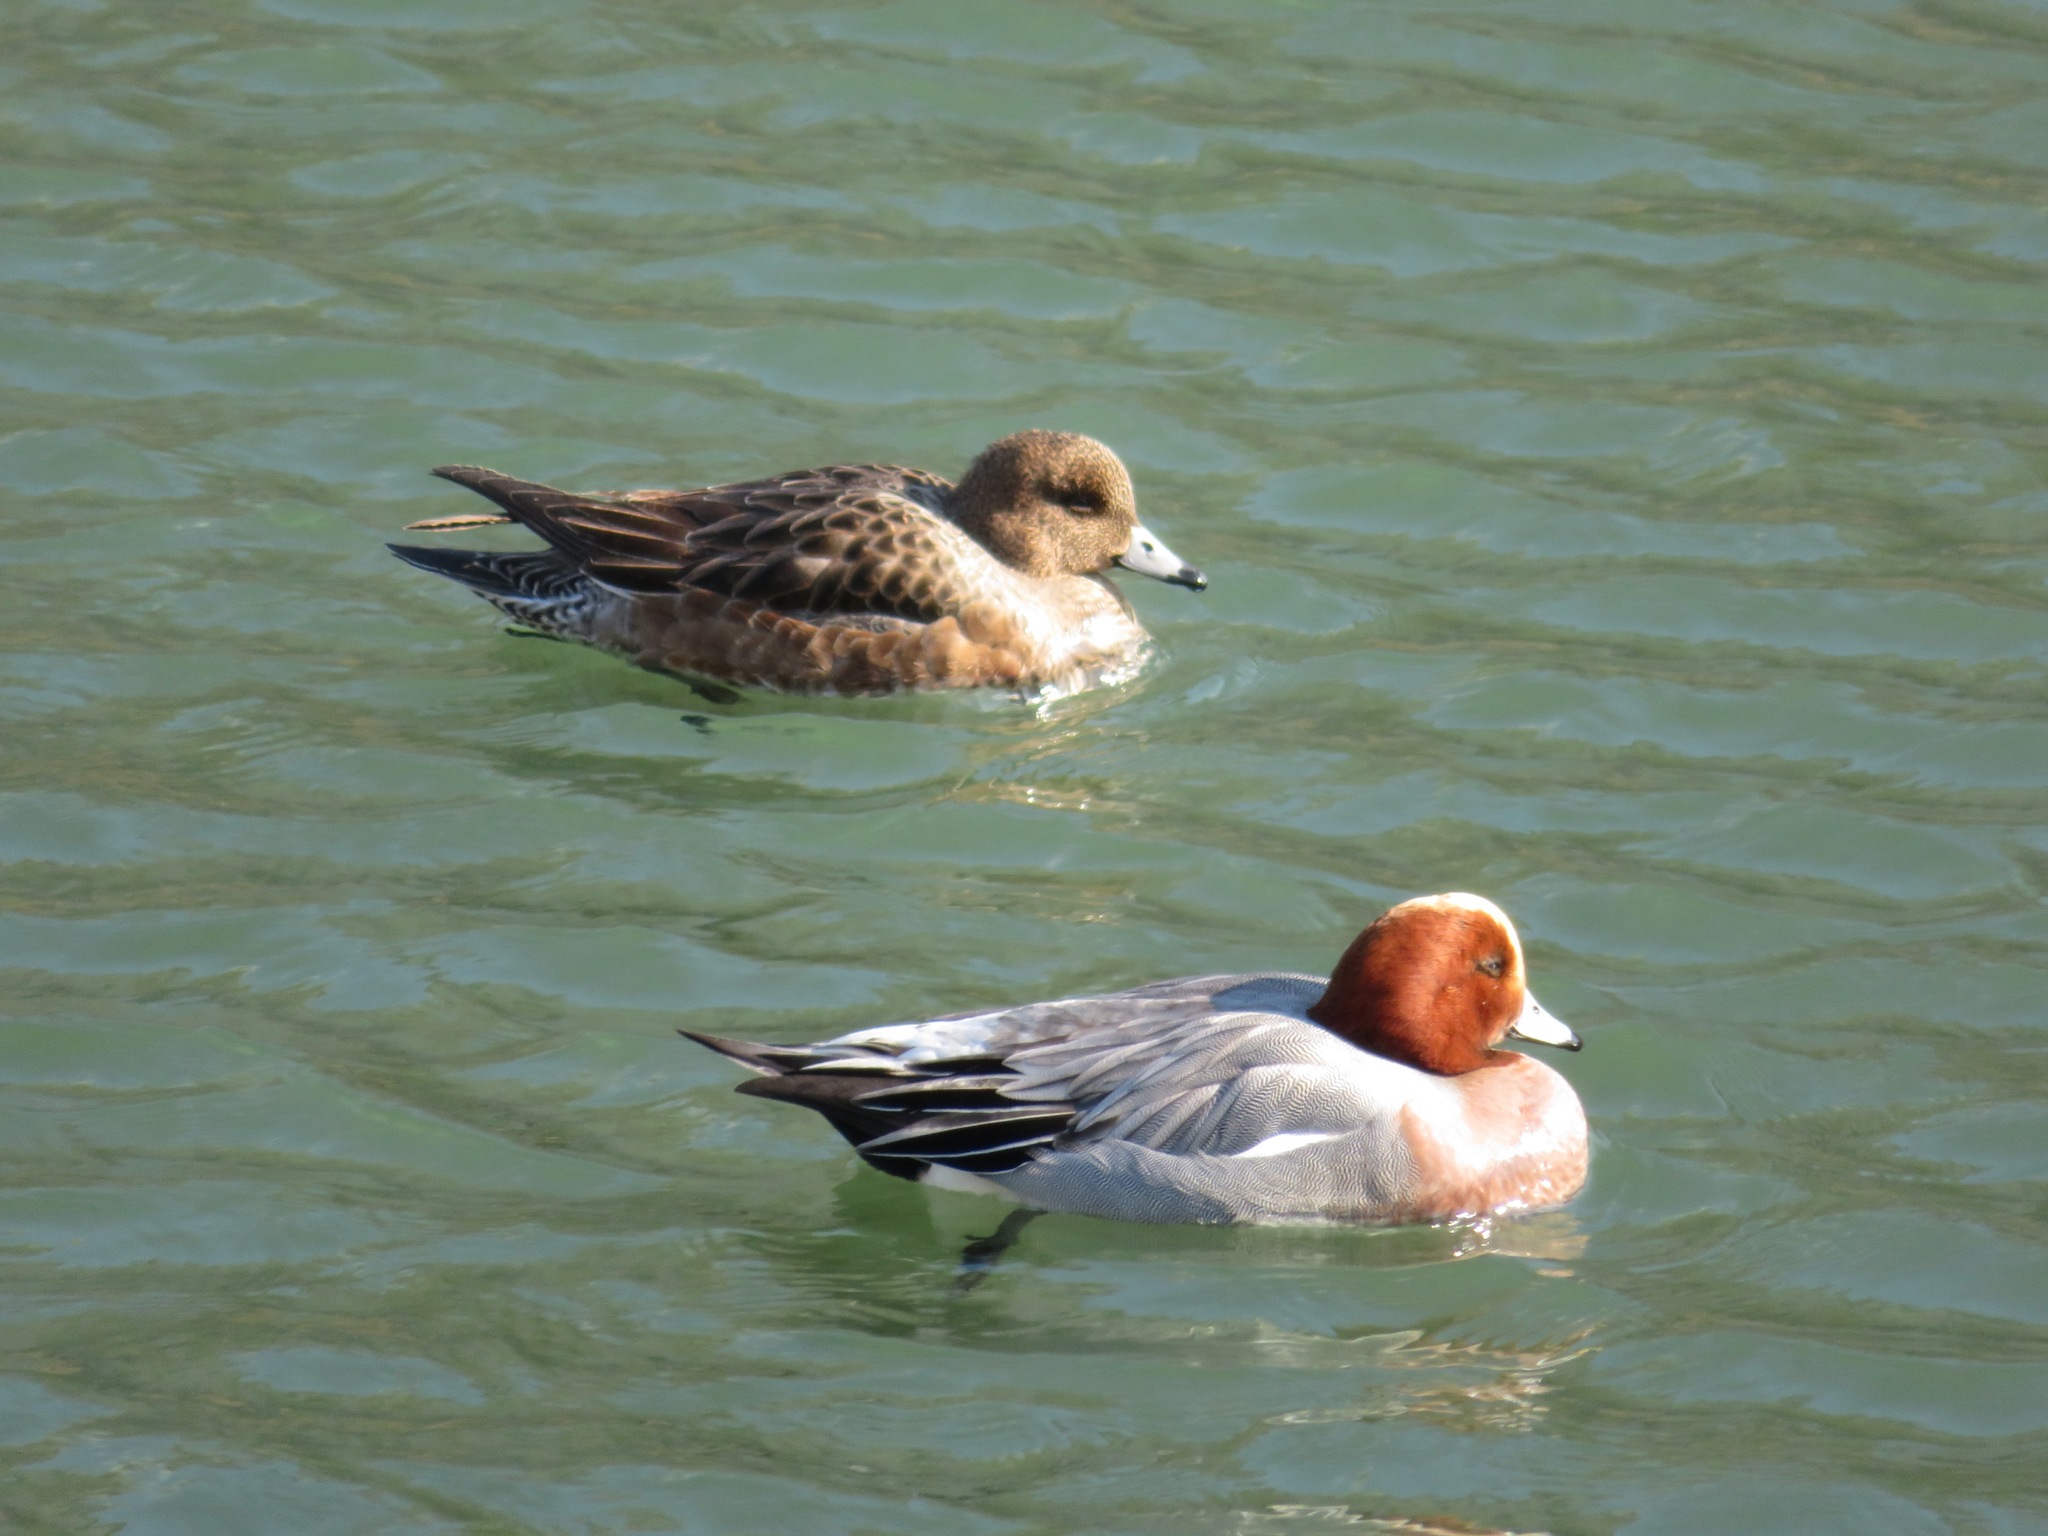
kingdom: Animalia
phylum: Chordata
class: Aves
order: Anseriformes
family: Anatidae
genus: Mareca
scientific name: Mareca penelope
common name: Eurasian wigeon
